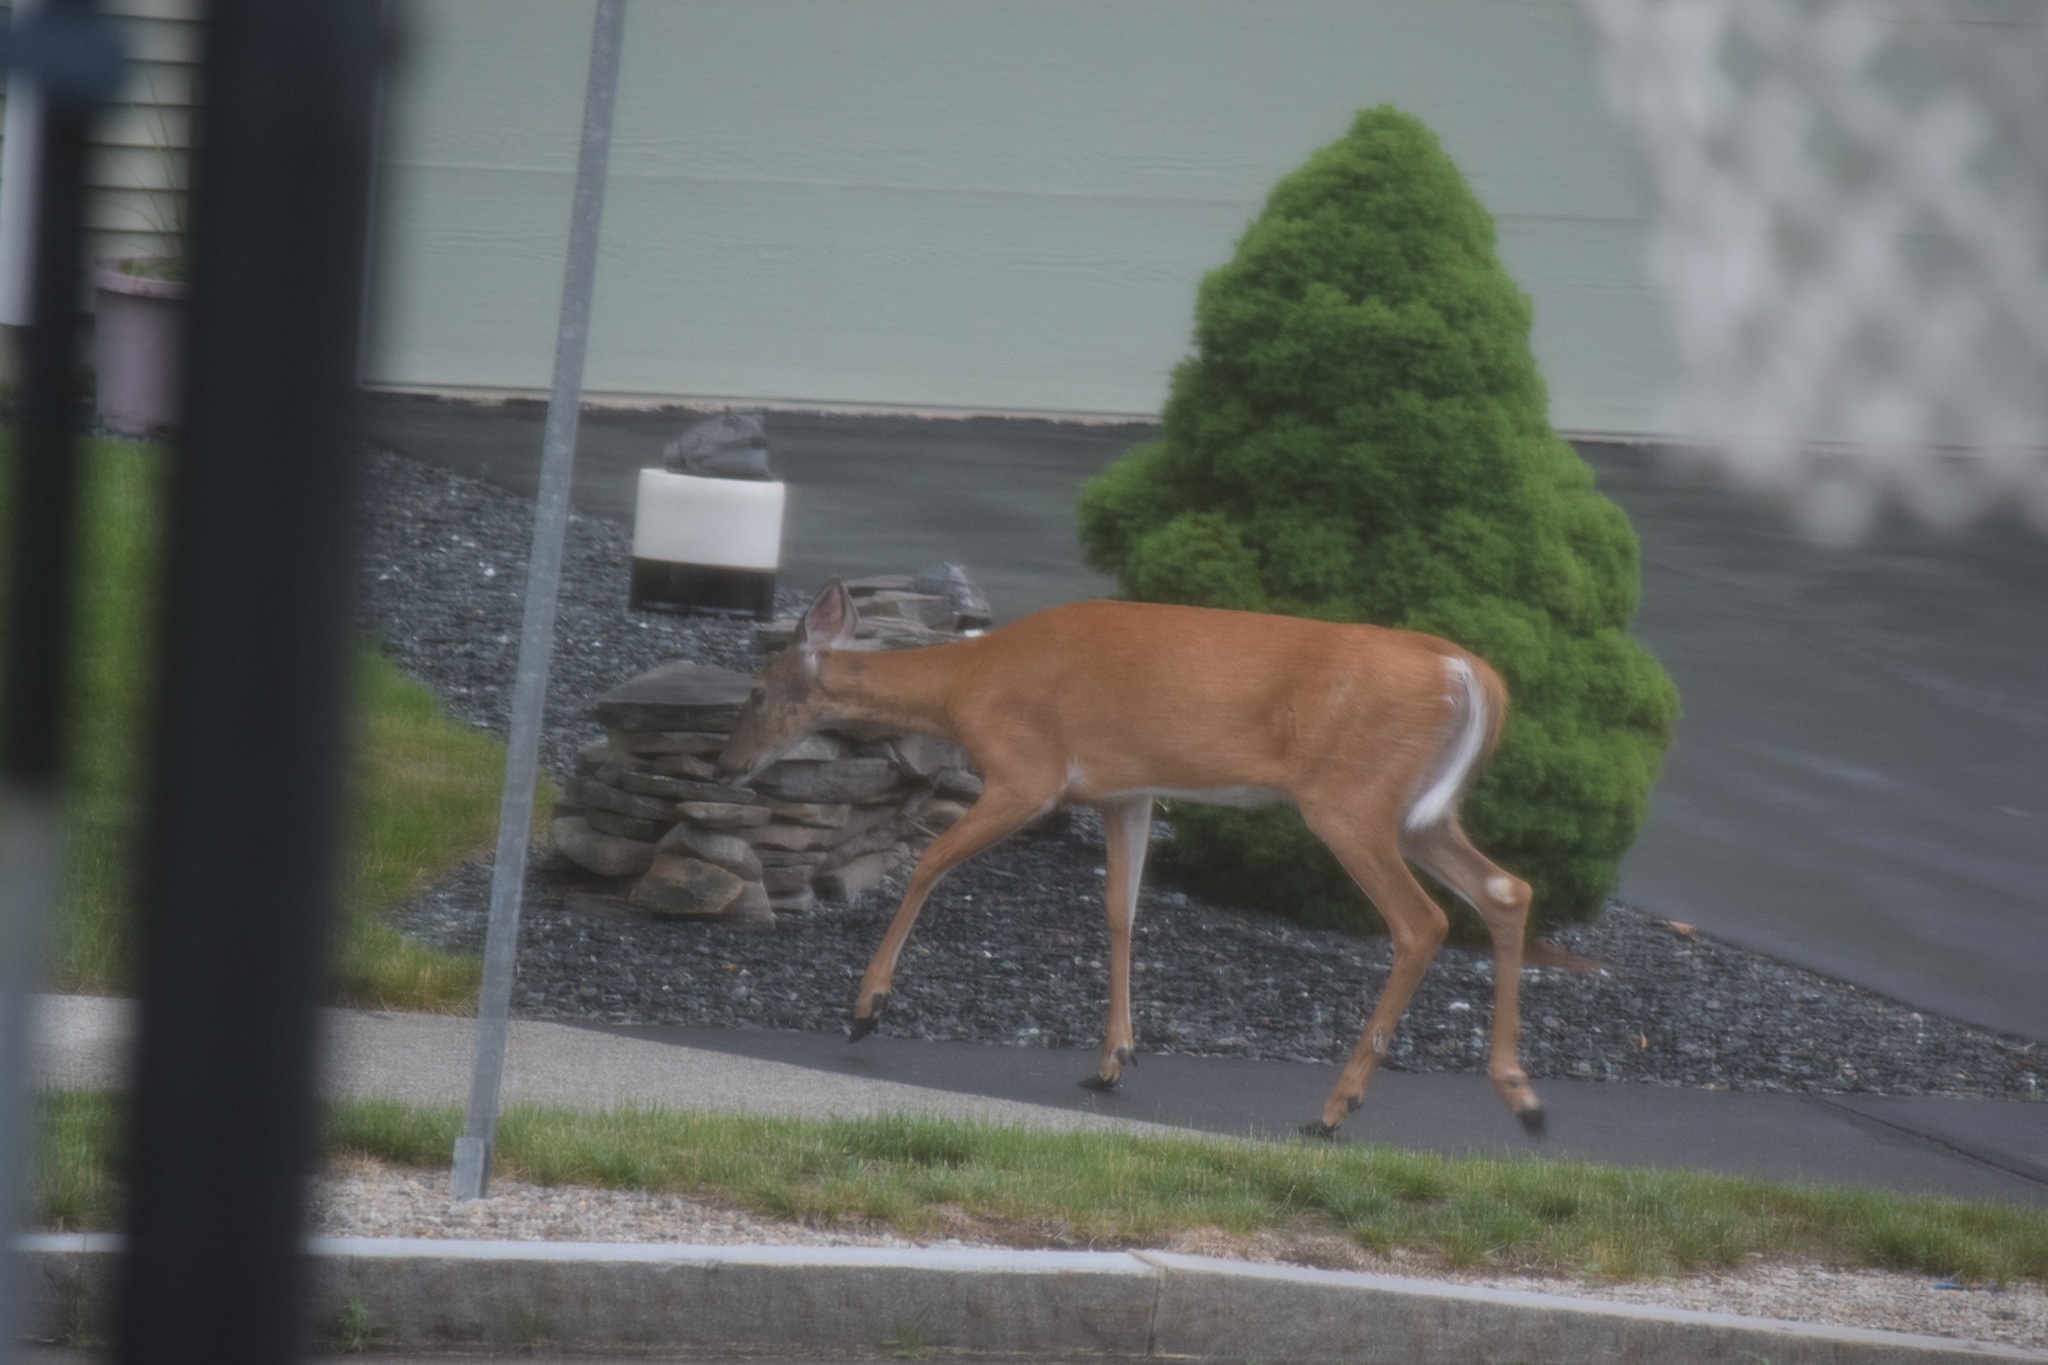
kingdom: Animalia
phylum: Chordata
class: Mammalia
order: Artiodactyla
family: Cervidae
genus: Odocoileus
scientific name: Odocoileus virginianus
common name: White-tailed deer
